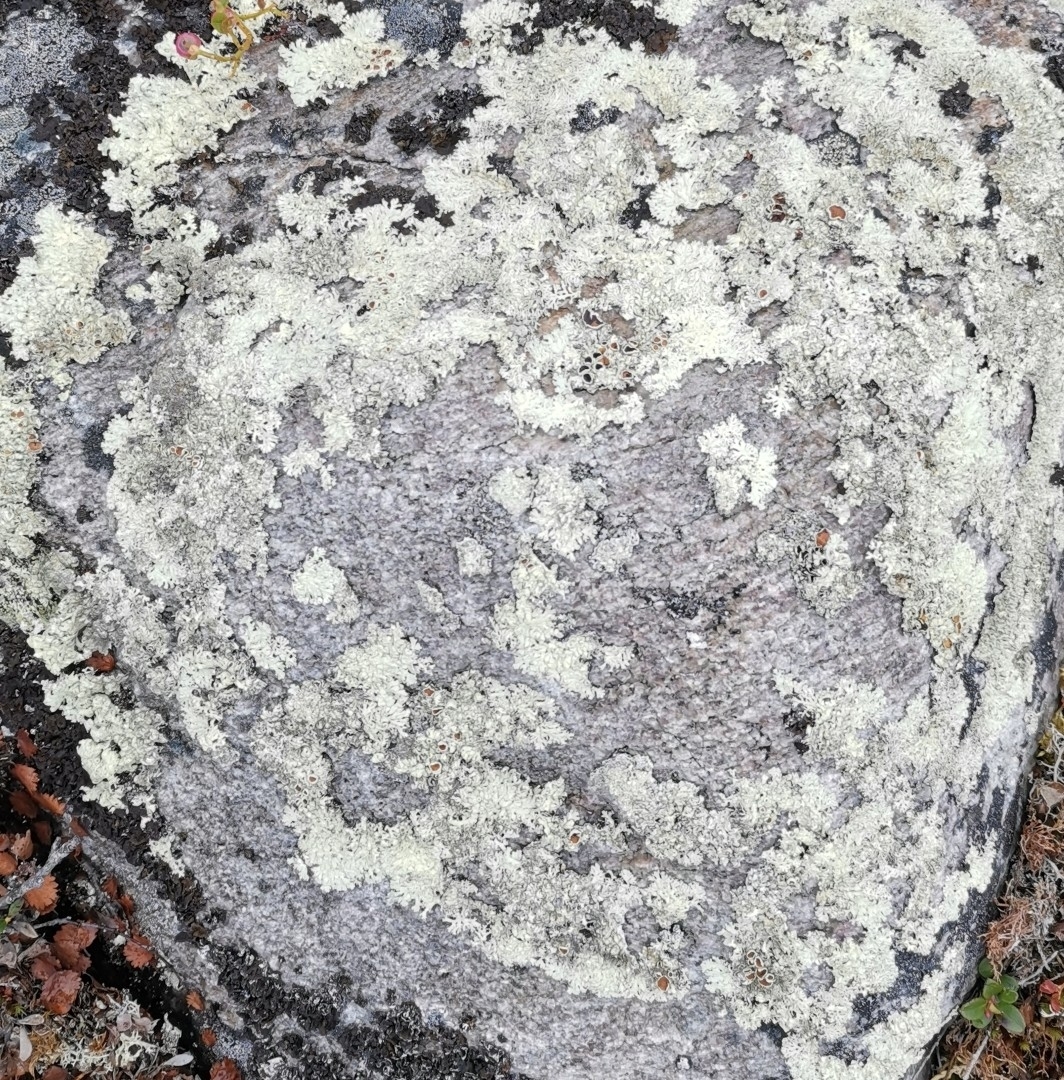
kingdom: Fungi
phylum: Ascomycota
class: Lecanoromycetes
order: Lecanorales
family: Parmeliaceae
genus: Arctoparmelia
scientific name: Arctoparmelia centrifuga
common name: Concentric ring lichen
